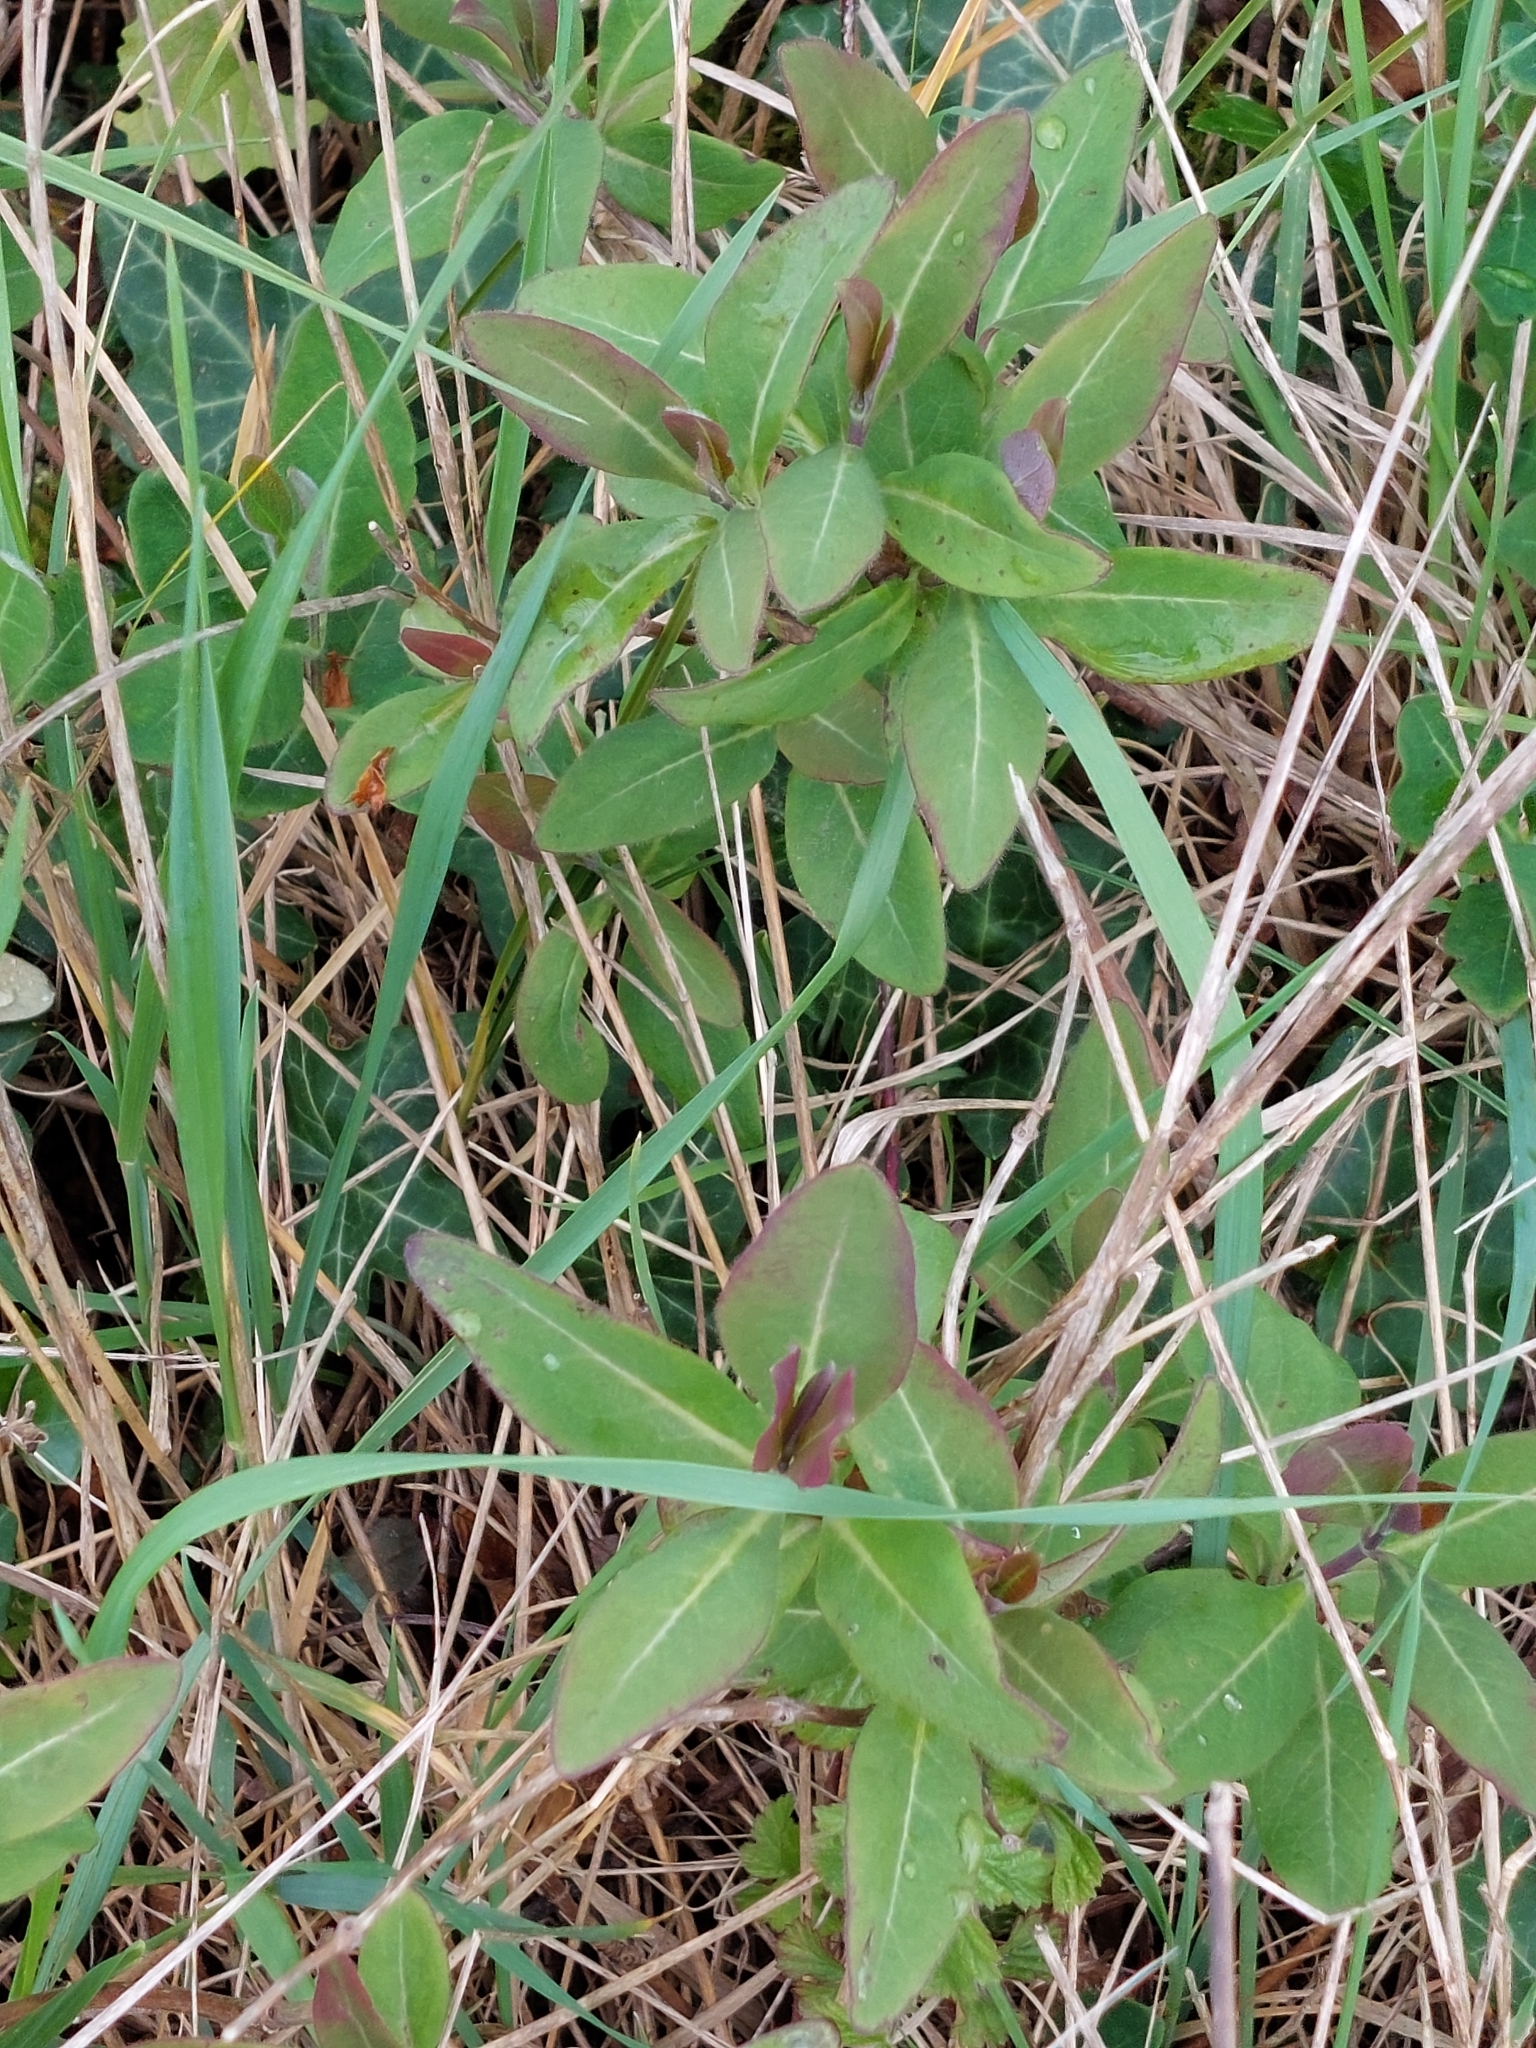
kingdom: Plantae
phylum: Tracheophyta
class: Magnoliopsida
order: Dipsacales
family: Caprifoliaceae
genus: Lonicera
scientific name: Lonicera periclymenum
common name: European honeysuckle
